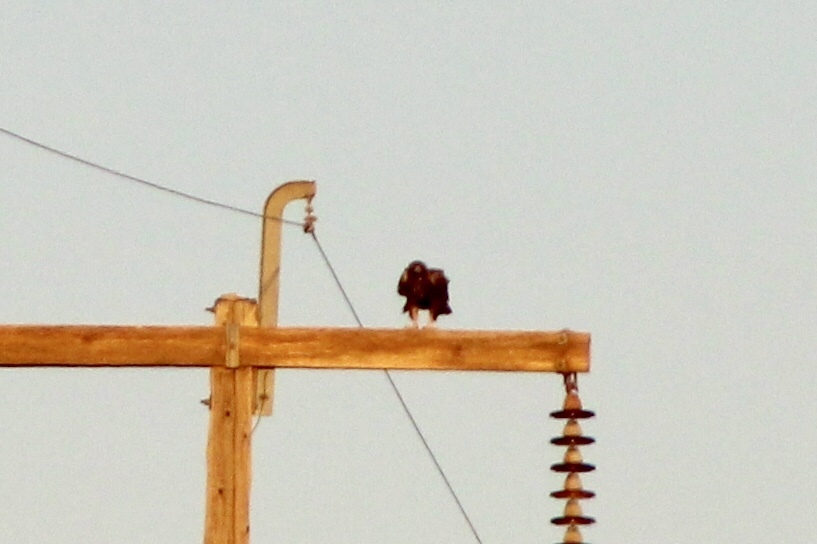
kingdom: Animalia
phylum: Chordata
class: Aves
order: Accipitriformes
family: Accipitridae
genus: Aquila
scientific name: Aquila chrysaetos
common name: Golden eagle
